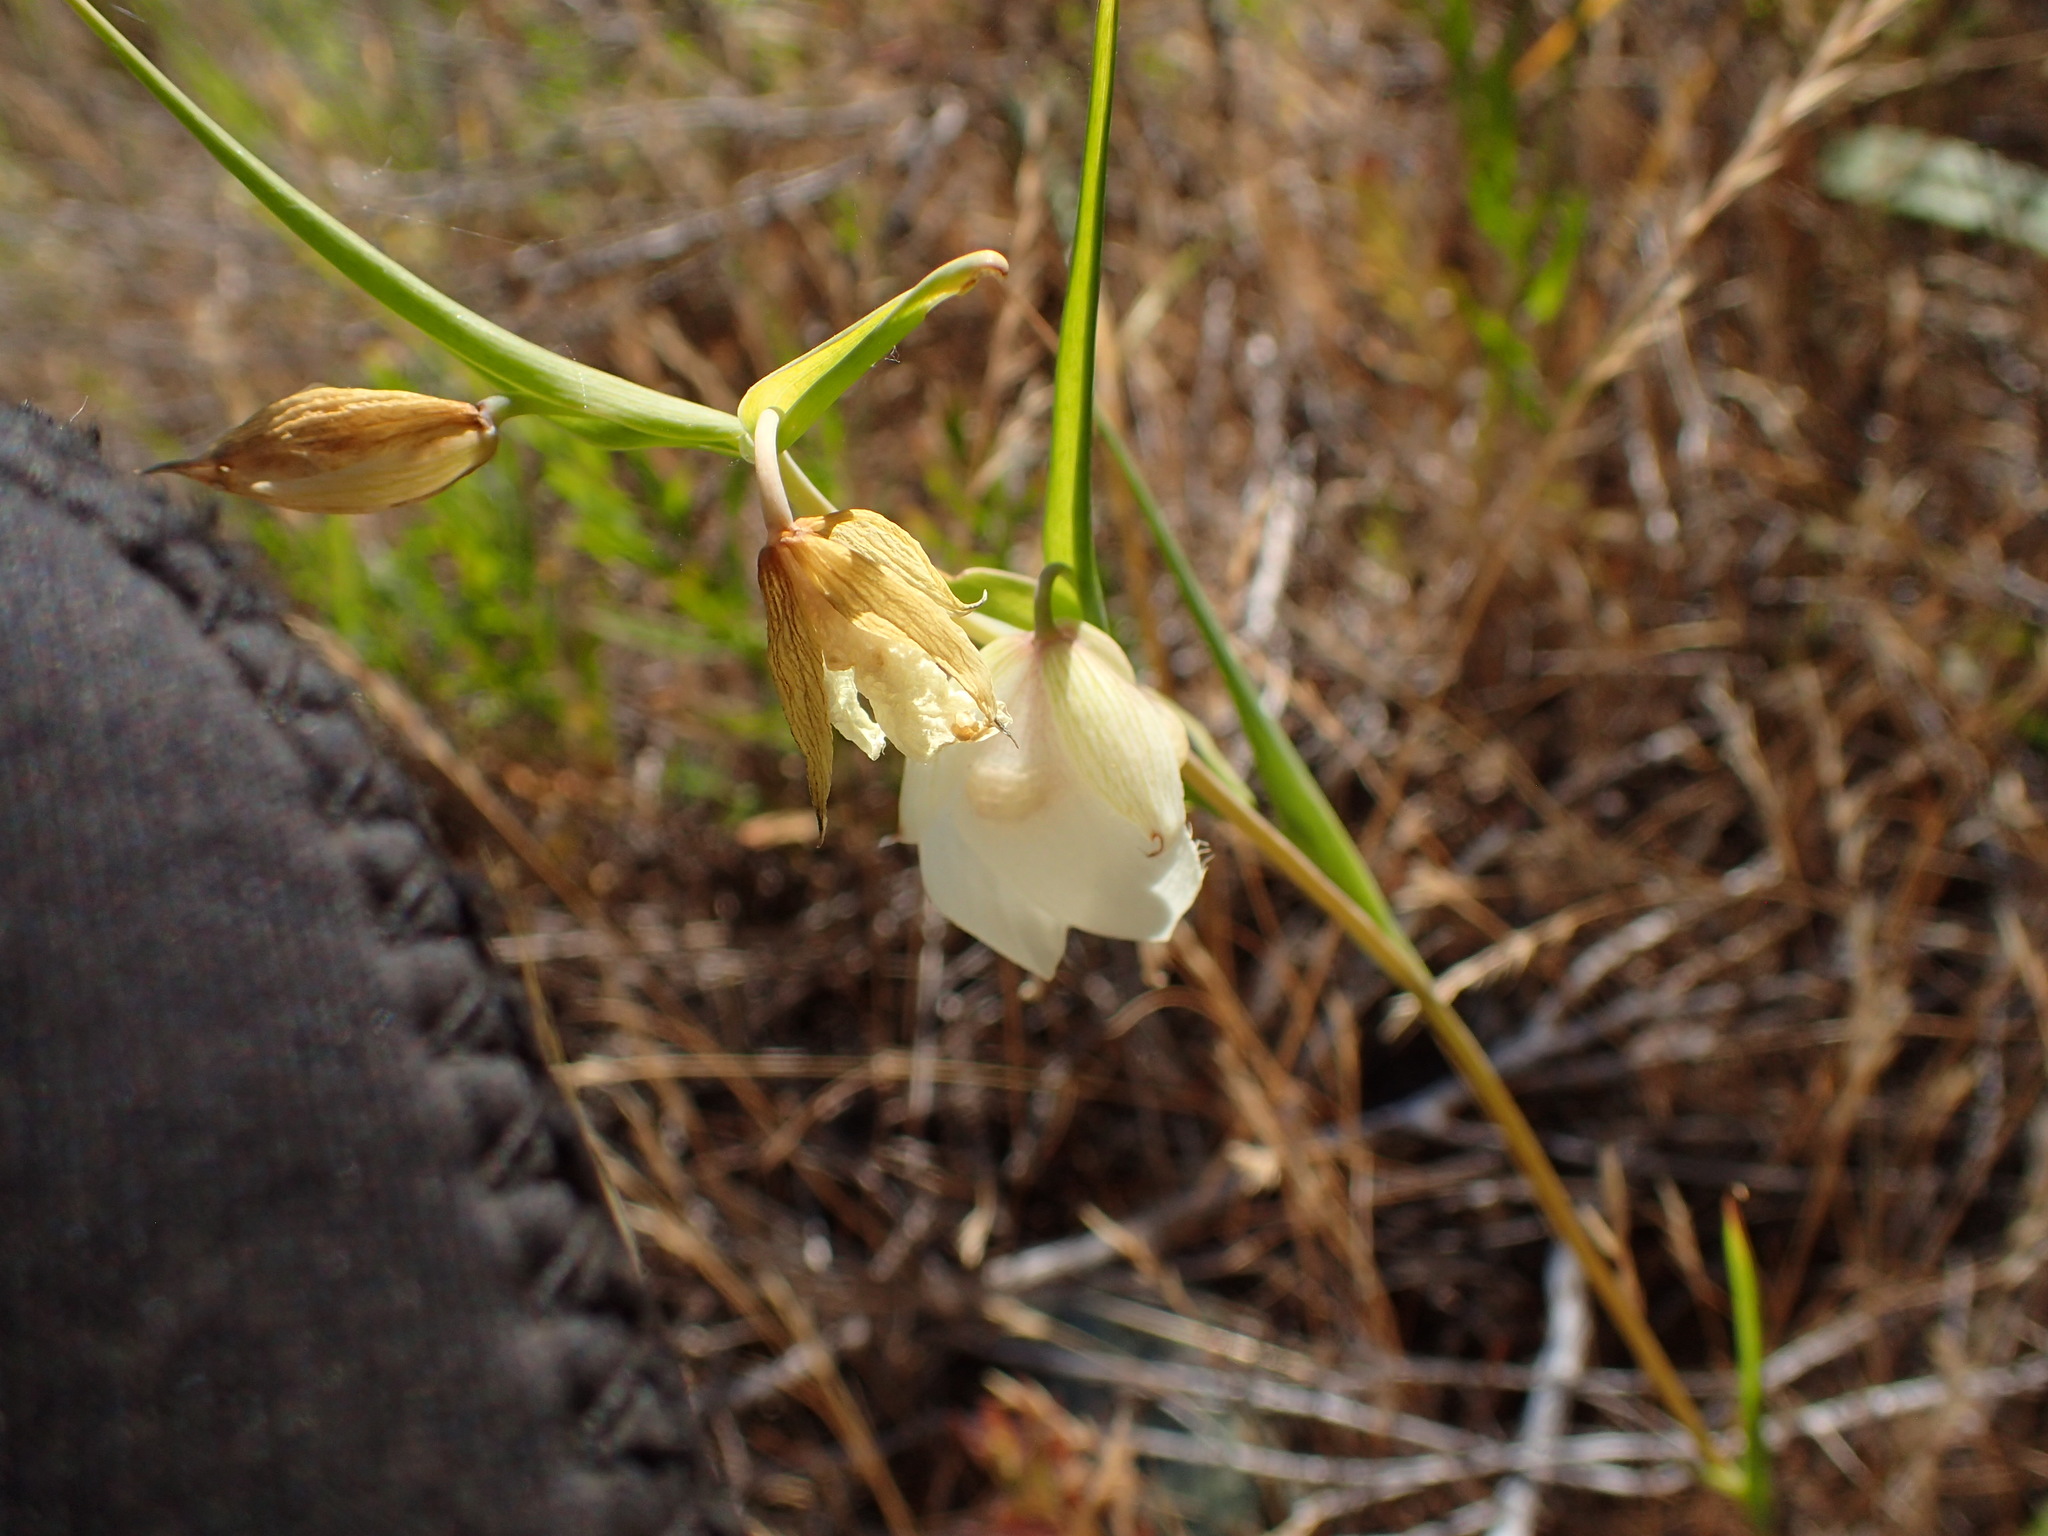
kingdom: Plantae
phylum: Tracheophyta
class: Liliopsida
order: Liliales
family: Liliaceae
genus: Calochortus
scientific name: Calochortus albus
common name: Fairy-lantern
